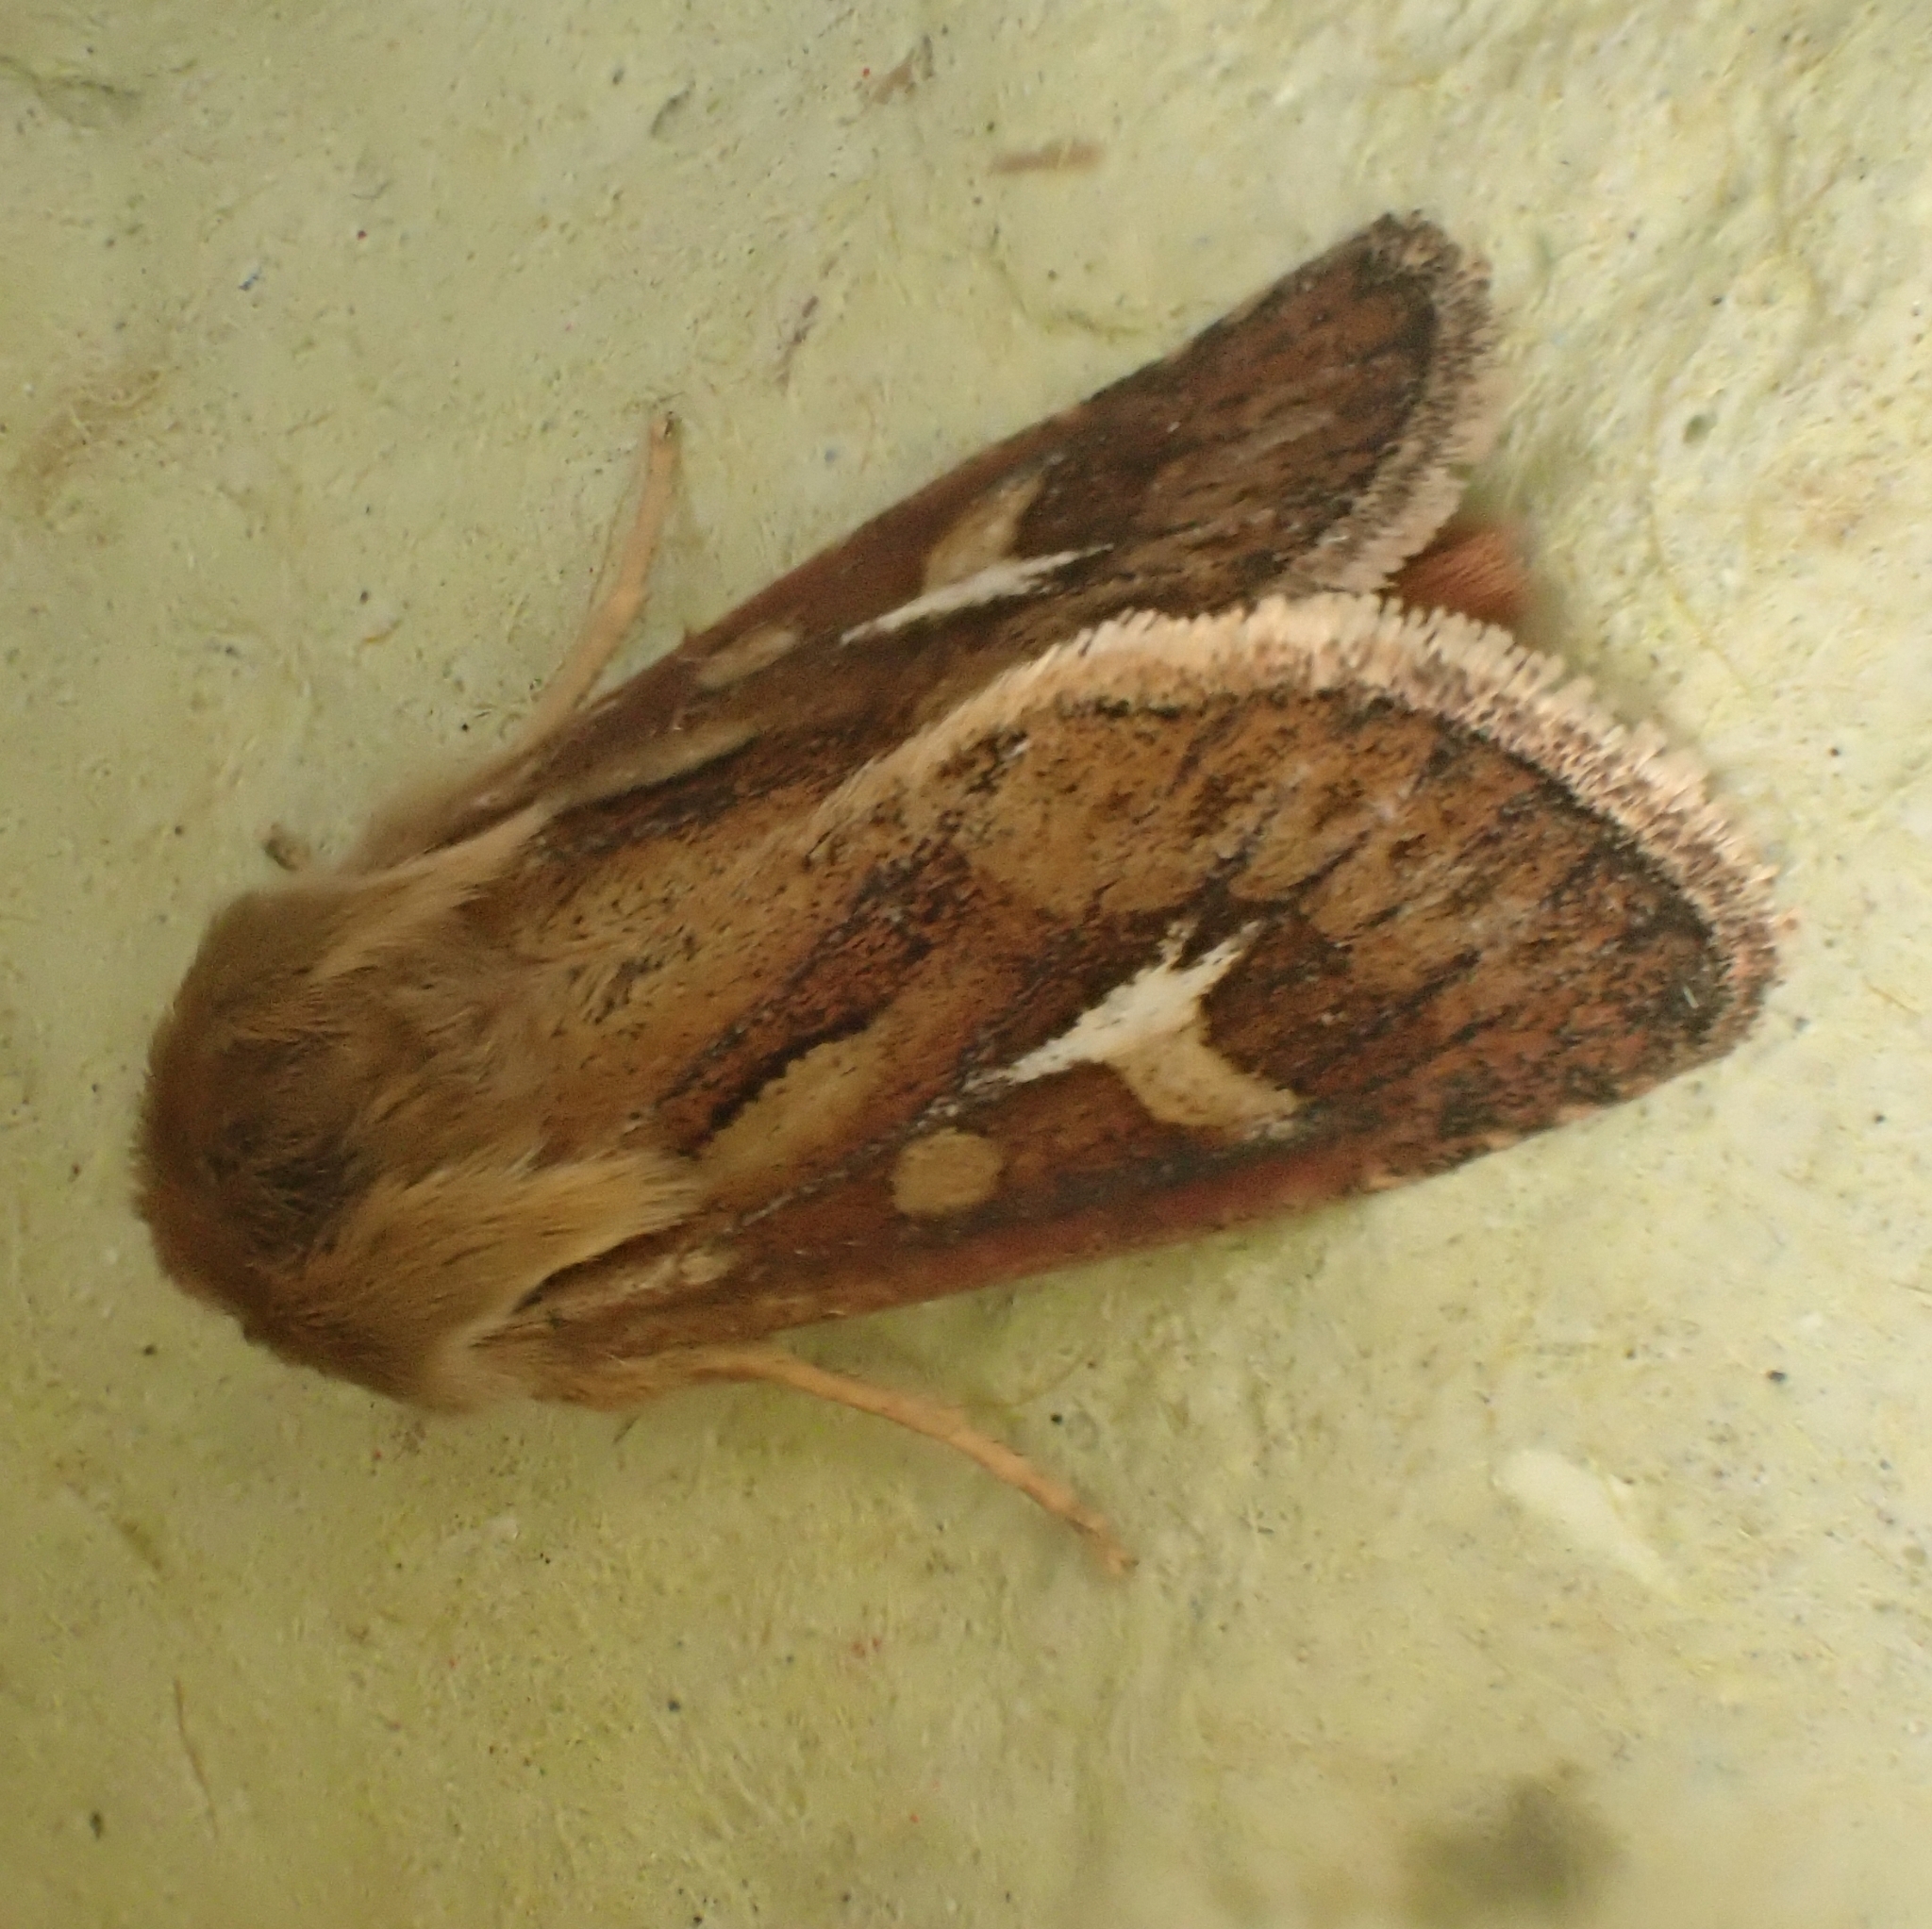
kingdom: Animalia
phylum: Arthropoda
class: Insecta
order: Lepidoptera
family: Noctuidae
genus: Cerapteryx
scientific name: Cerapteryx graminis
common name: Antler moth
